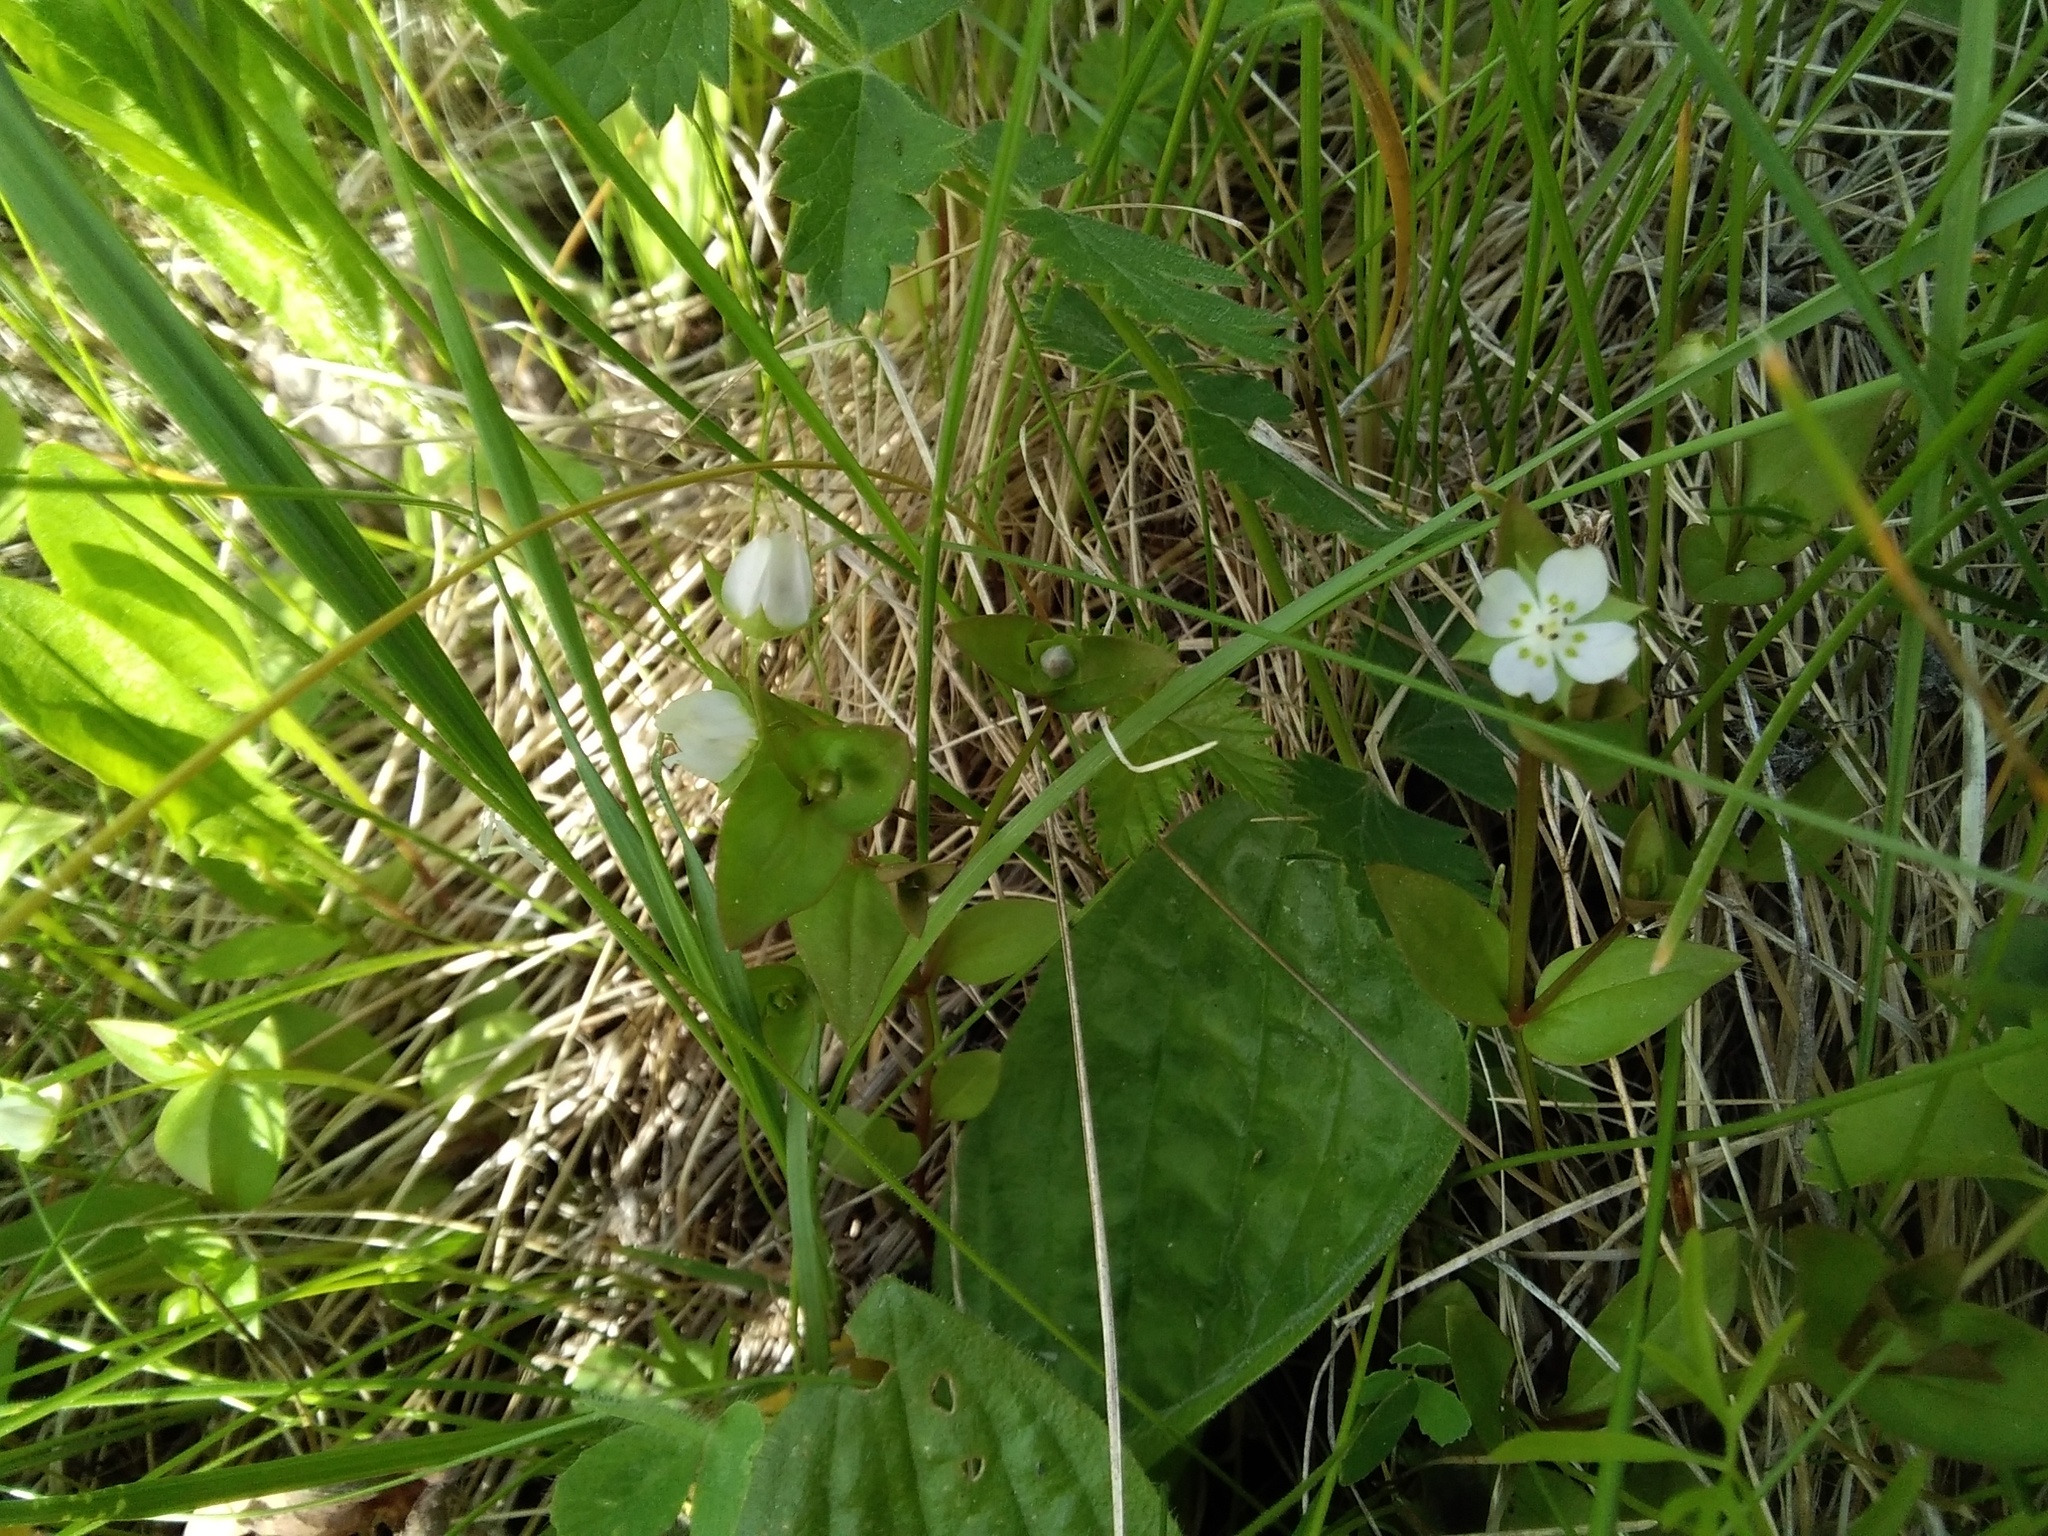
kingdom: Plantae
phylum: Tracheophyta
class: Magnoliopsida
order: Gentianales
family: Gentianaceae
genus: Swertia
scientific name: Swertia dichotoma
